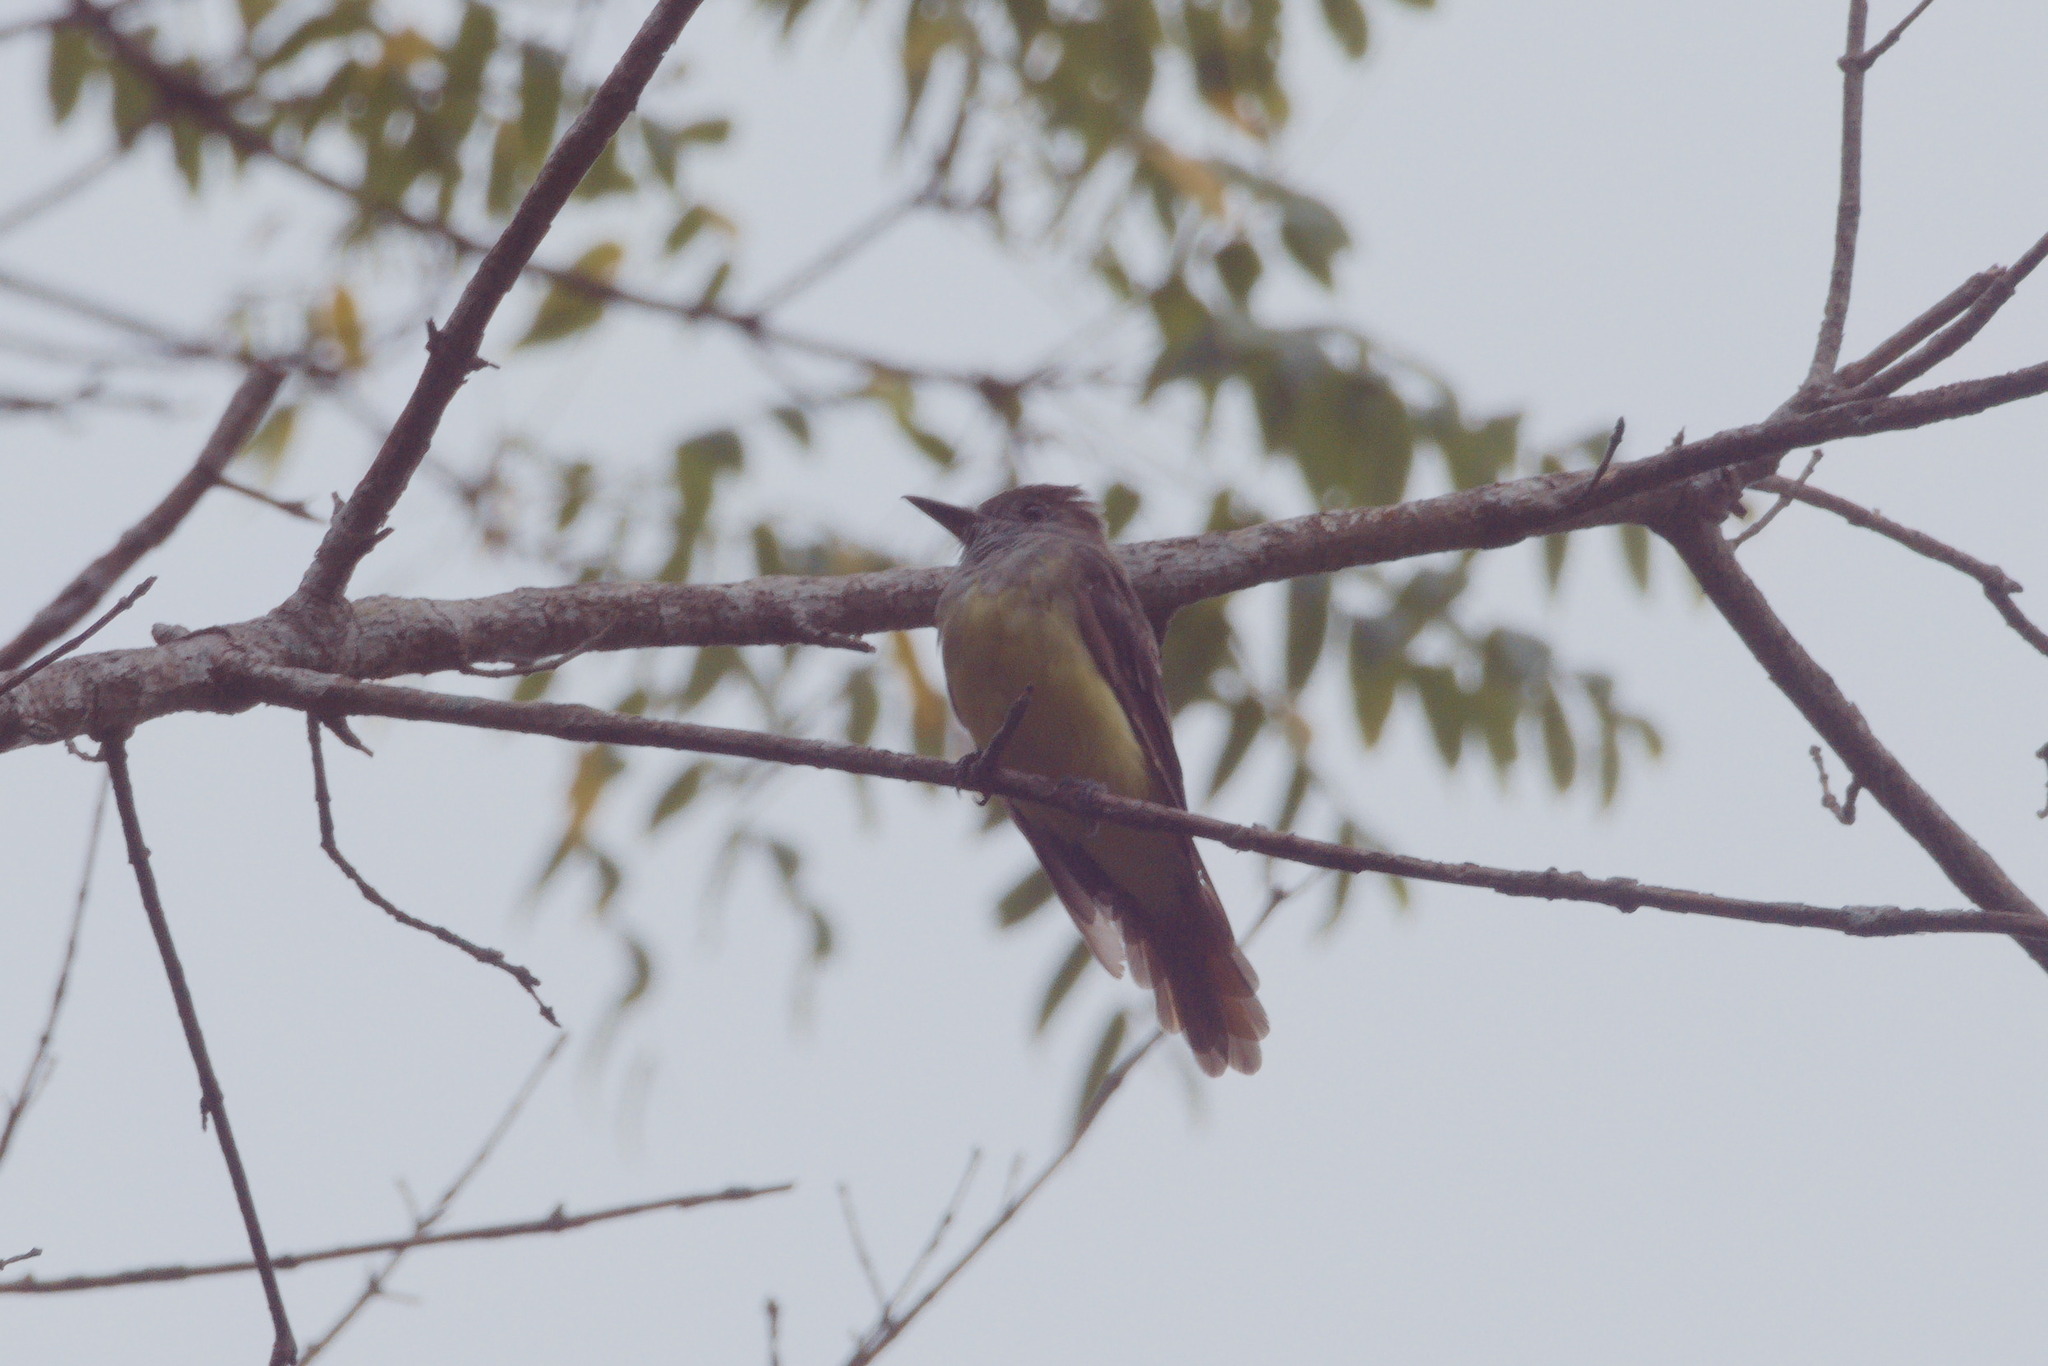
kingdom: Animalia
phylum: Chordata
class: Aves
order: Passeriformes
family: Tyrannidae
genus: Myiarchus
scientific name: Myiarchus crinitus
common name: Great crested flycatcher
